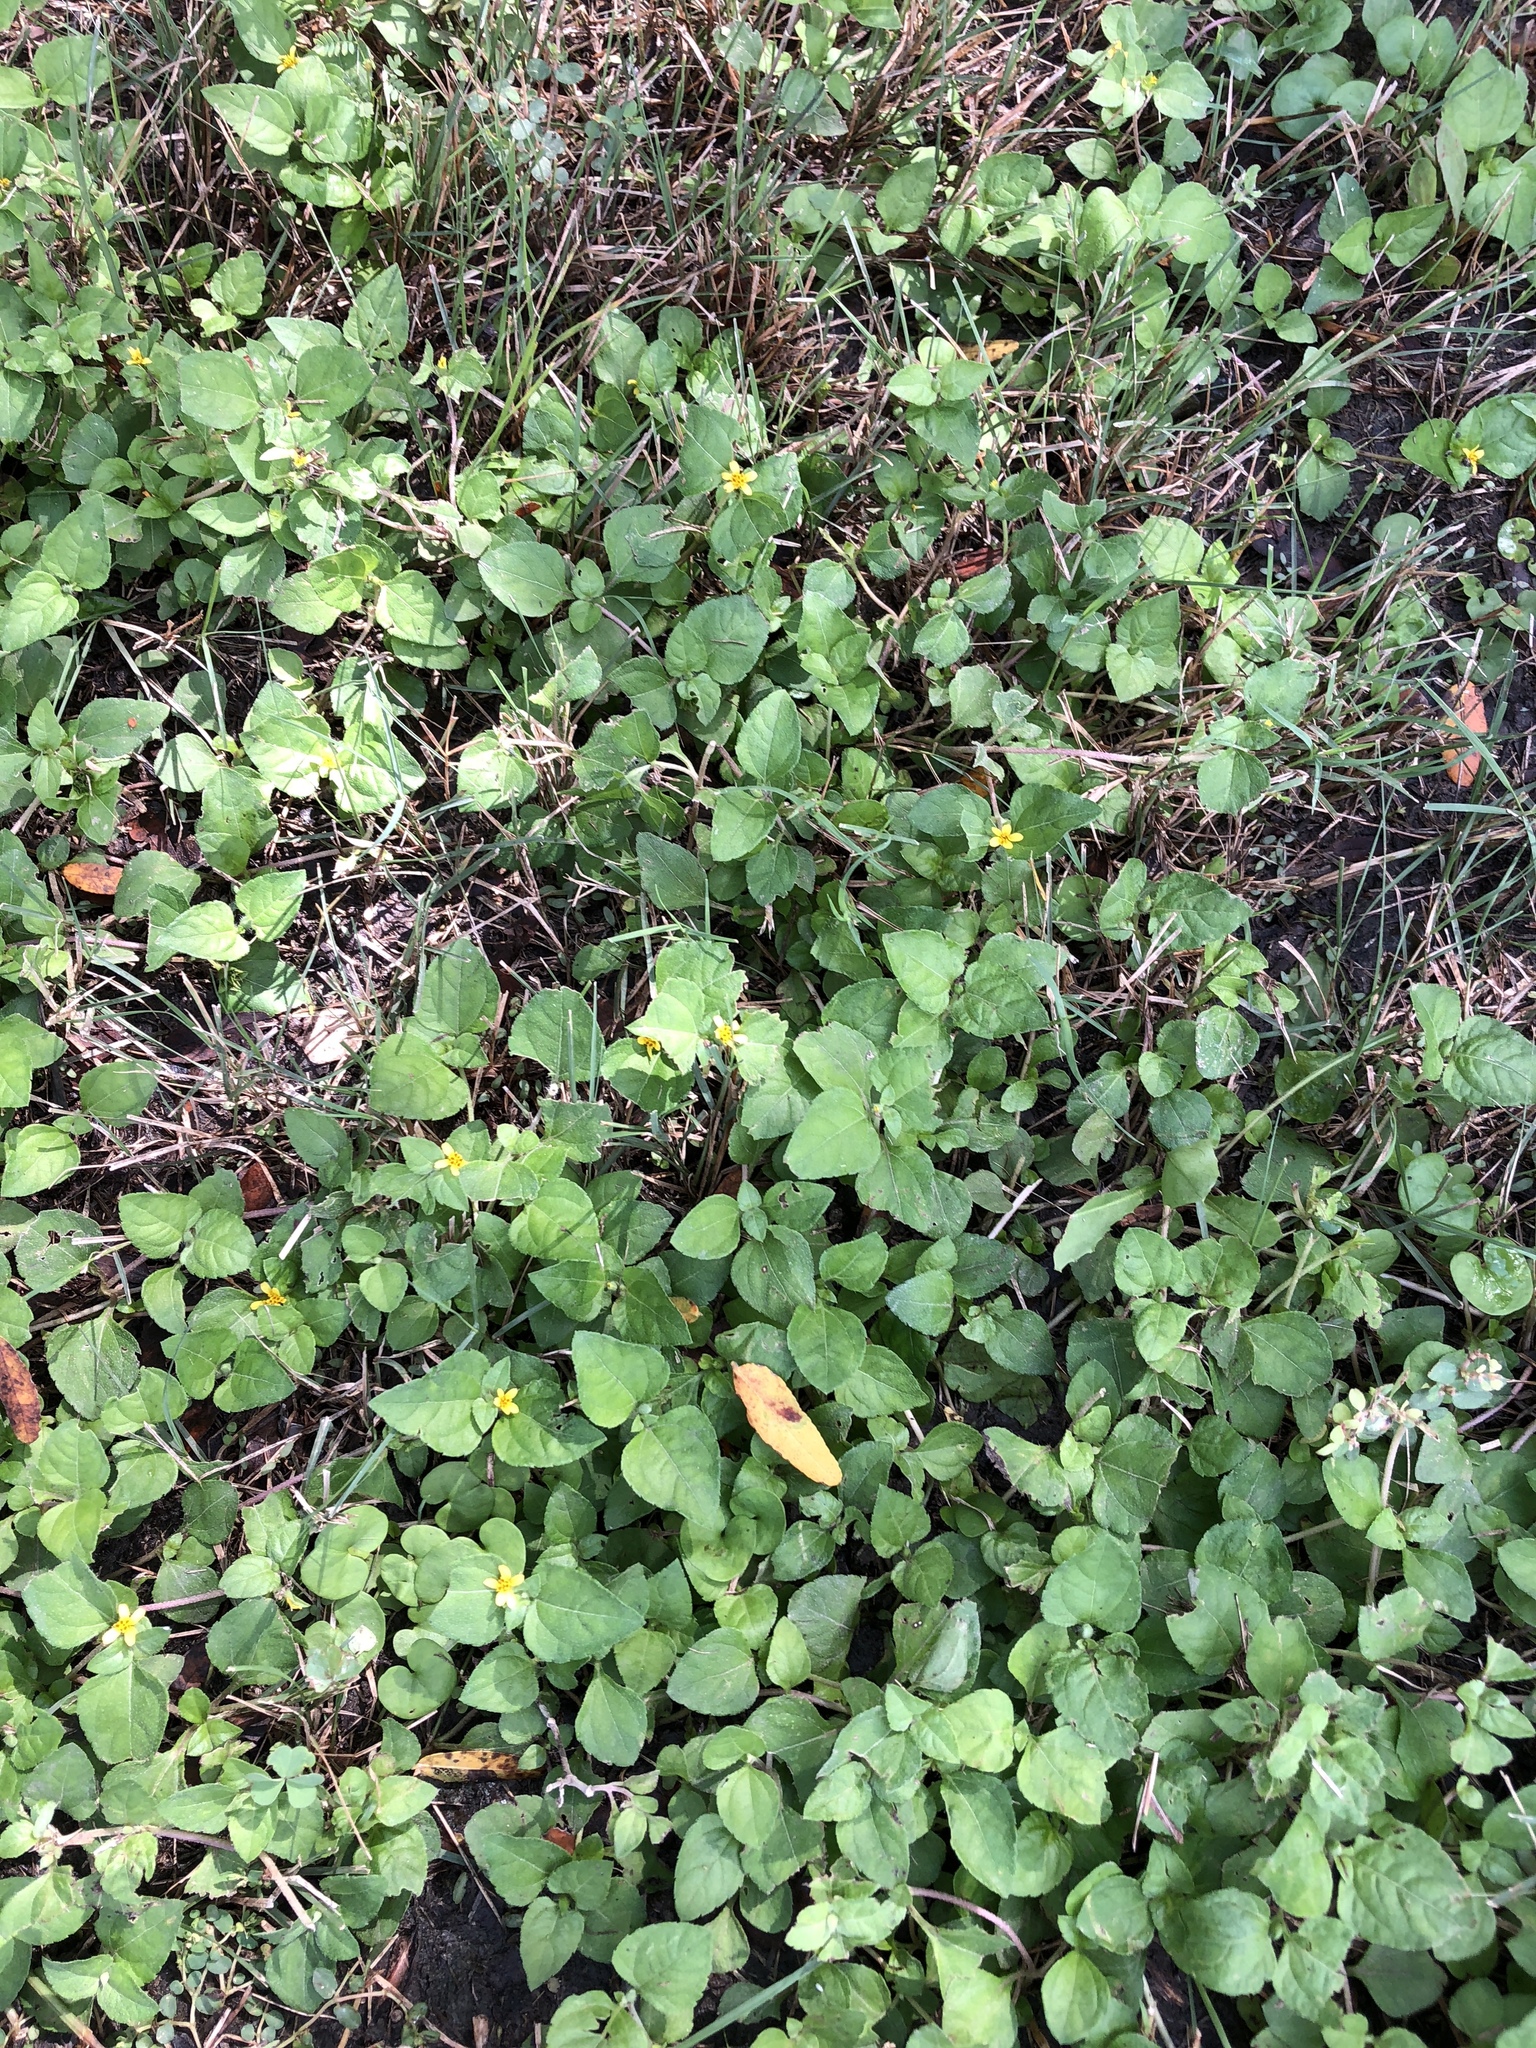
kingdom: Plantae
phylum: Tracheophyta
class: Magnoliopsida
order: Asterales
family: Asteraceae
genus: Calyptocarpus
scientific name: Calyptocarpus vialis
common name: Straggler daisy
